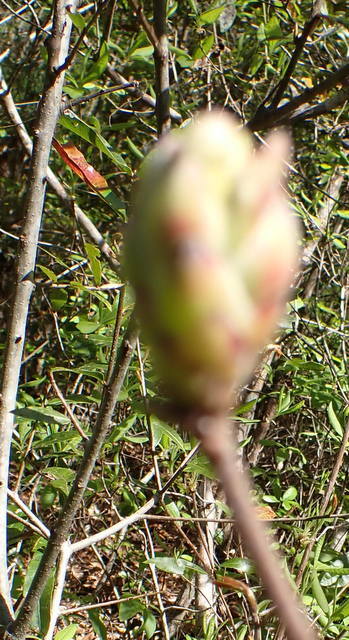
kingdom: Plantae
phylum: Tracheophyta
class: Magnoliopsida
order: Ericales
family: Ericaceae
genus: Rhododendron
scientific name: Rhododendron austrinum
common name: Florida azalea
